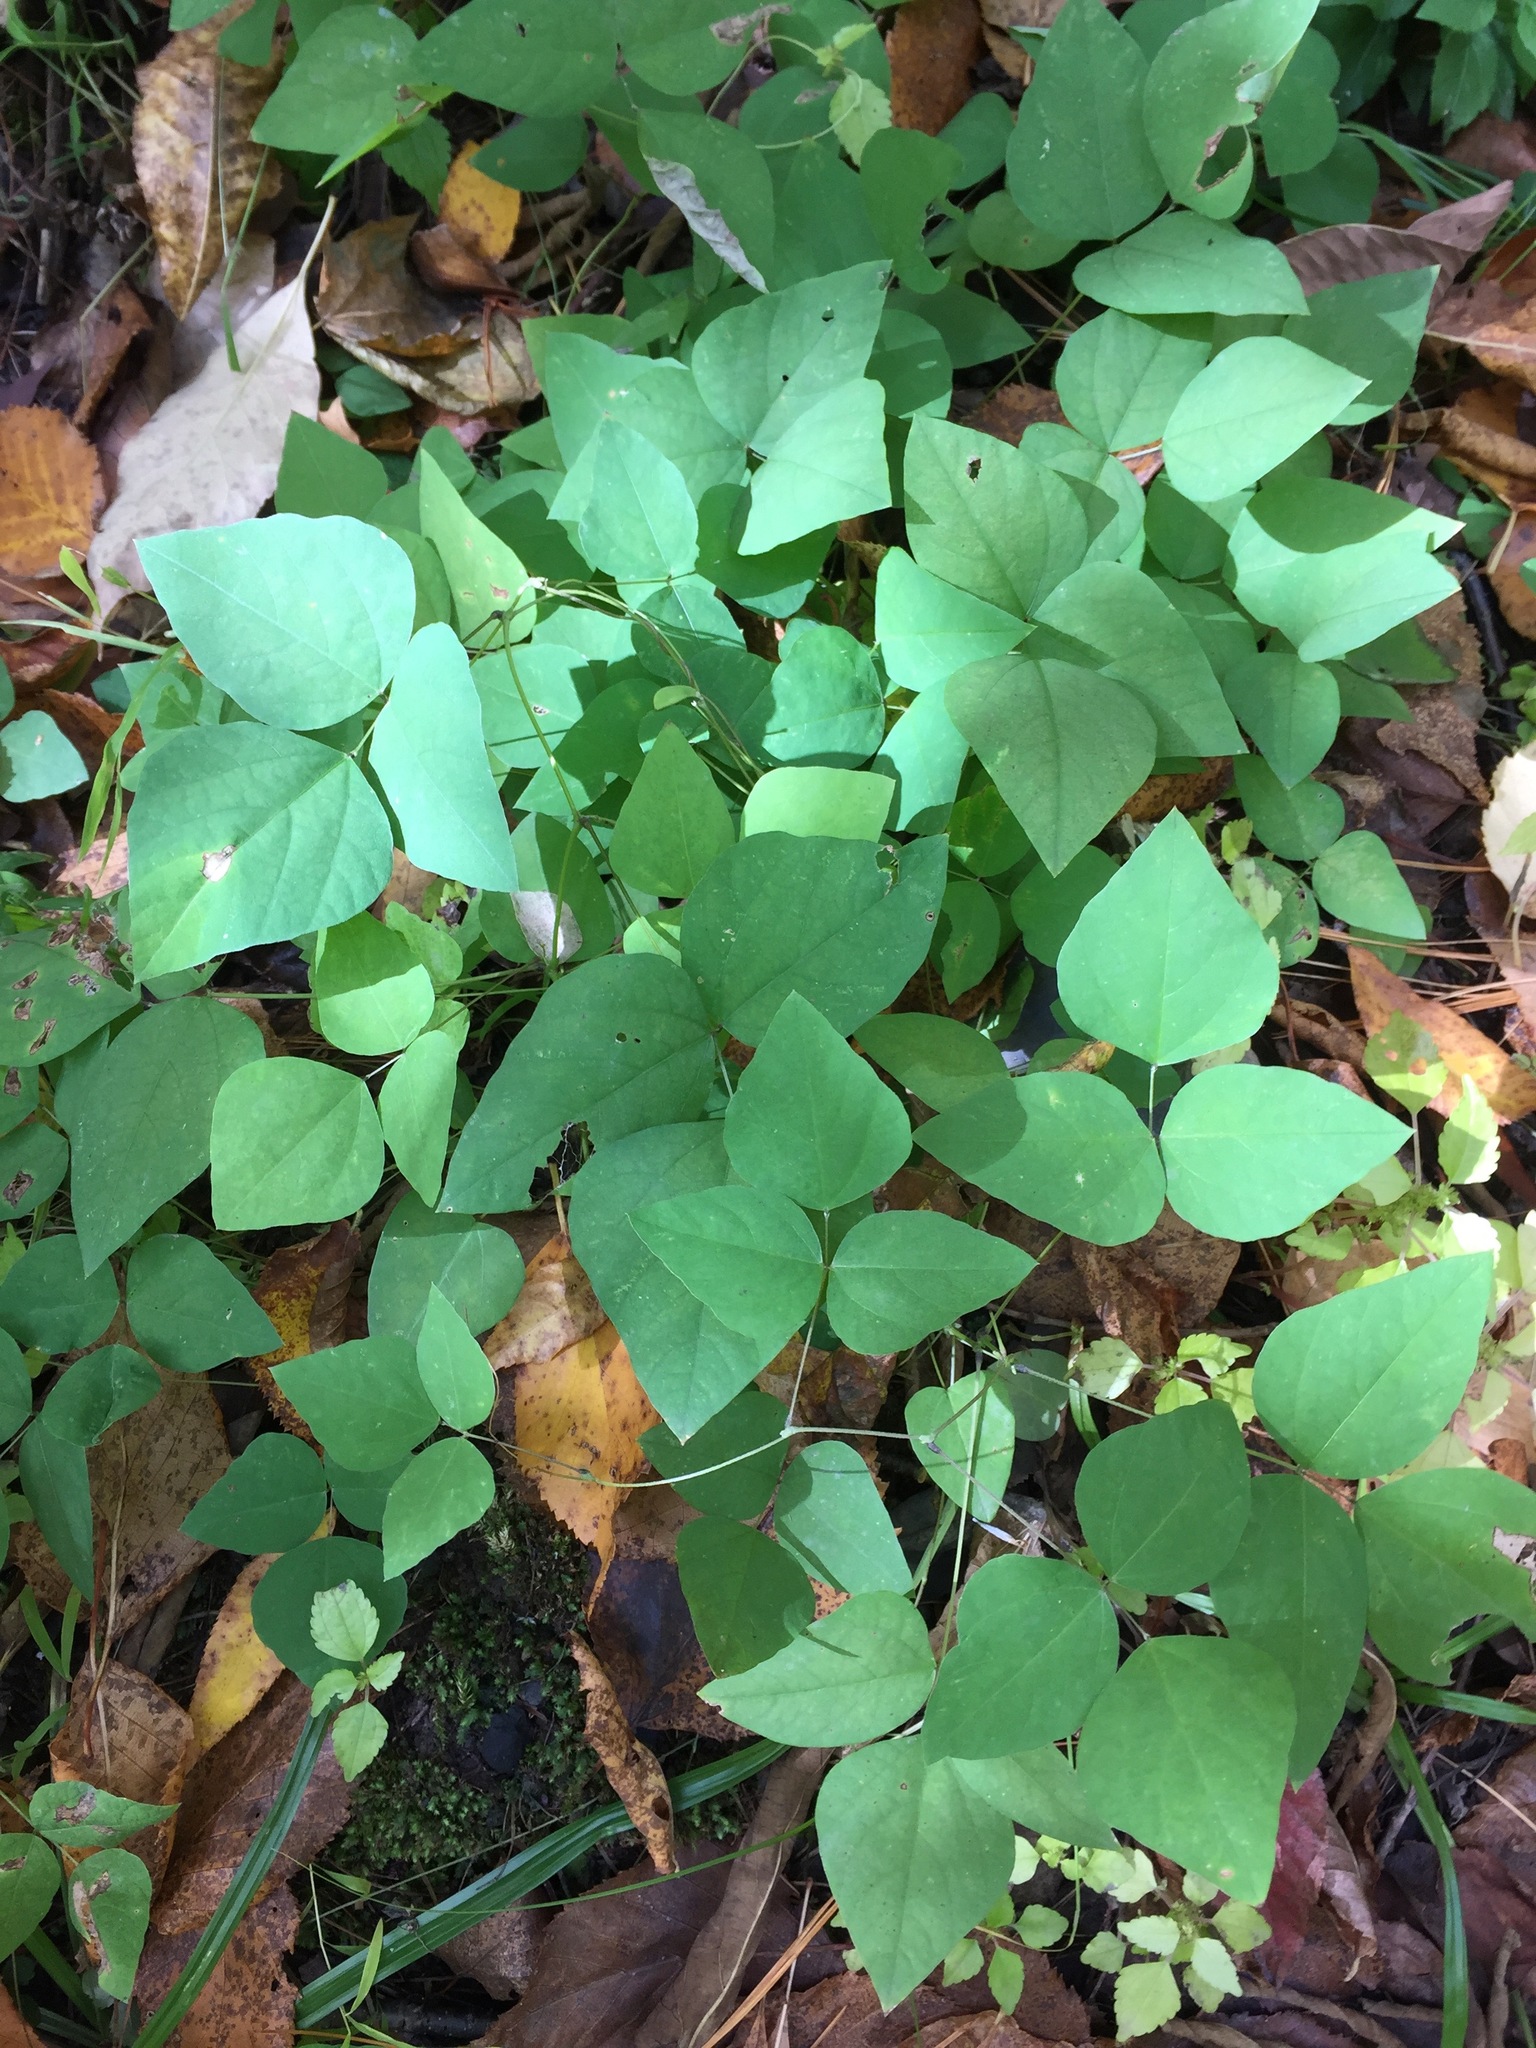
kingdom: Plantae
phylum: Tracheophyta
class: Magnoliopsida
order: Fabales
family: Fabaceae
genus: Amphicarpaea
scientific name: Amphicarpaea bracteata
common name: American hog peanut
